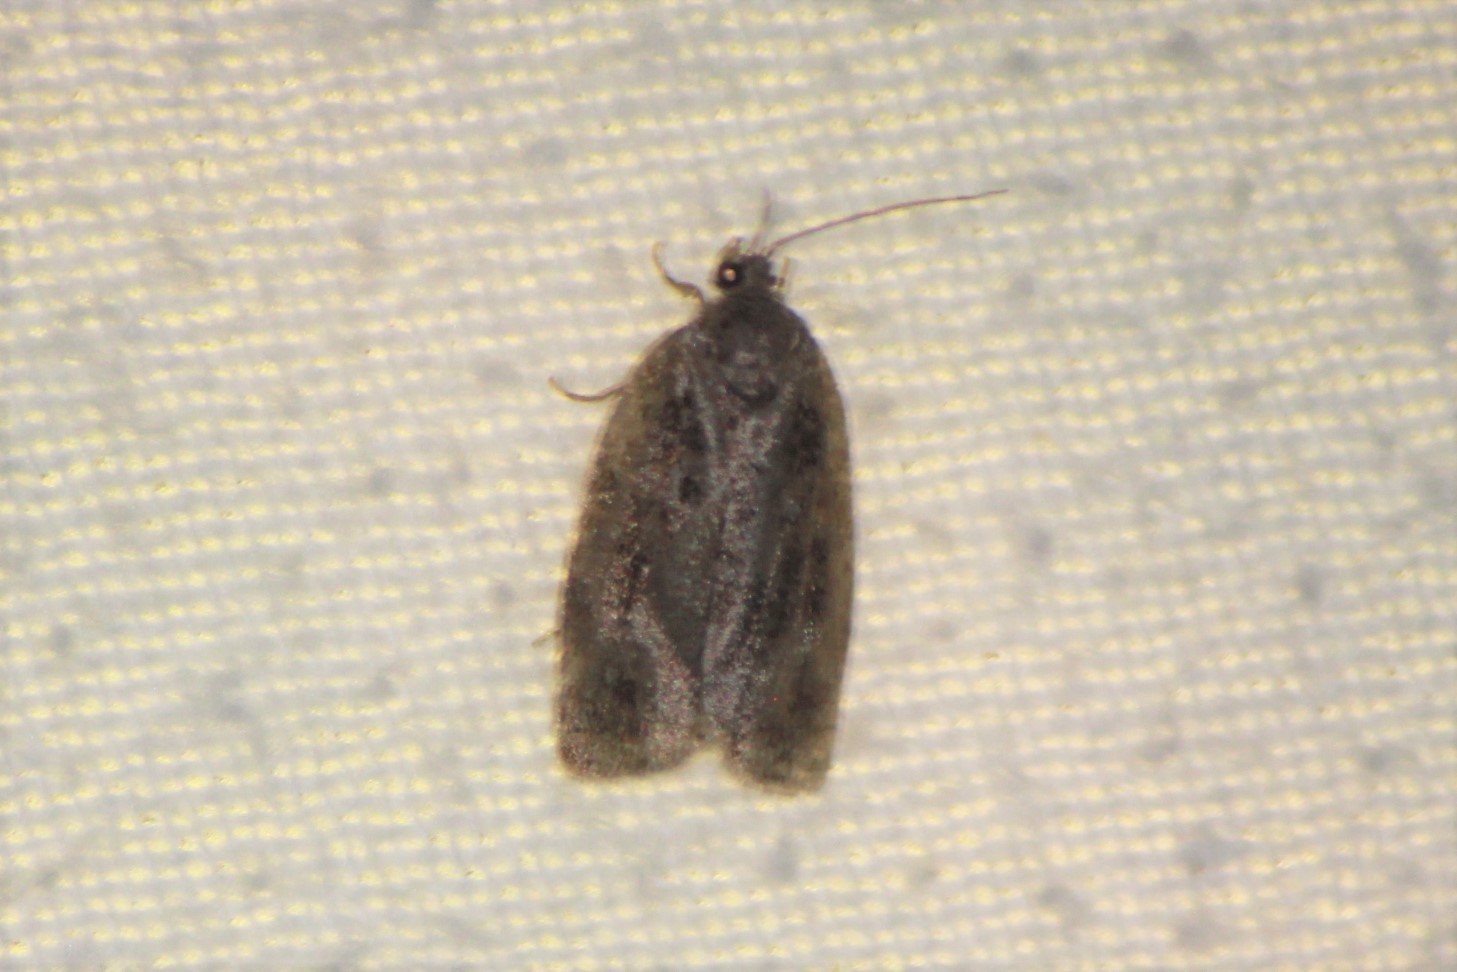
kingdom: Animalia
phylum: Arthropoda
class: Insecta
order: Lepidoptera
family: Tortricidae
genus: Choristoneura
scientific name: Choristoneura fumiferana
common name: Spruce budworm
